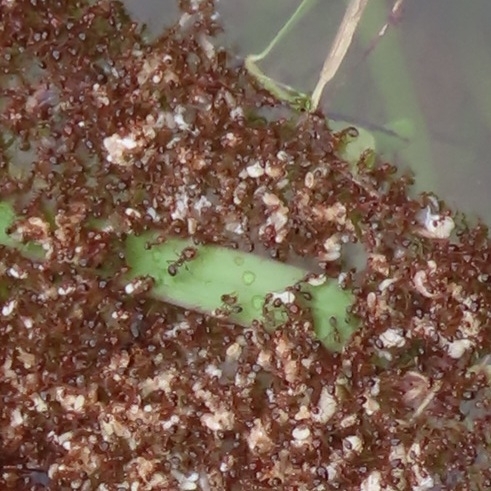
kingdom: Animalia
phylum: Arthropoda
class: Insecta
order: Hymenoptera
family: Formicidae
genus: Solenopsis
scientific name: Solenopsis invicta
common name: Red imported fire ant
